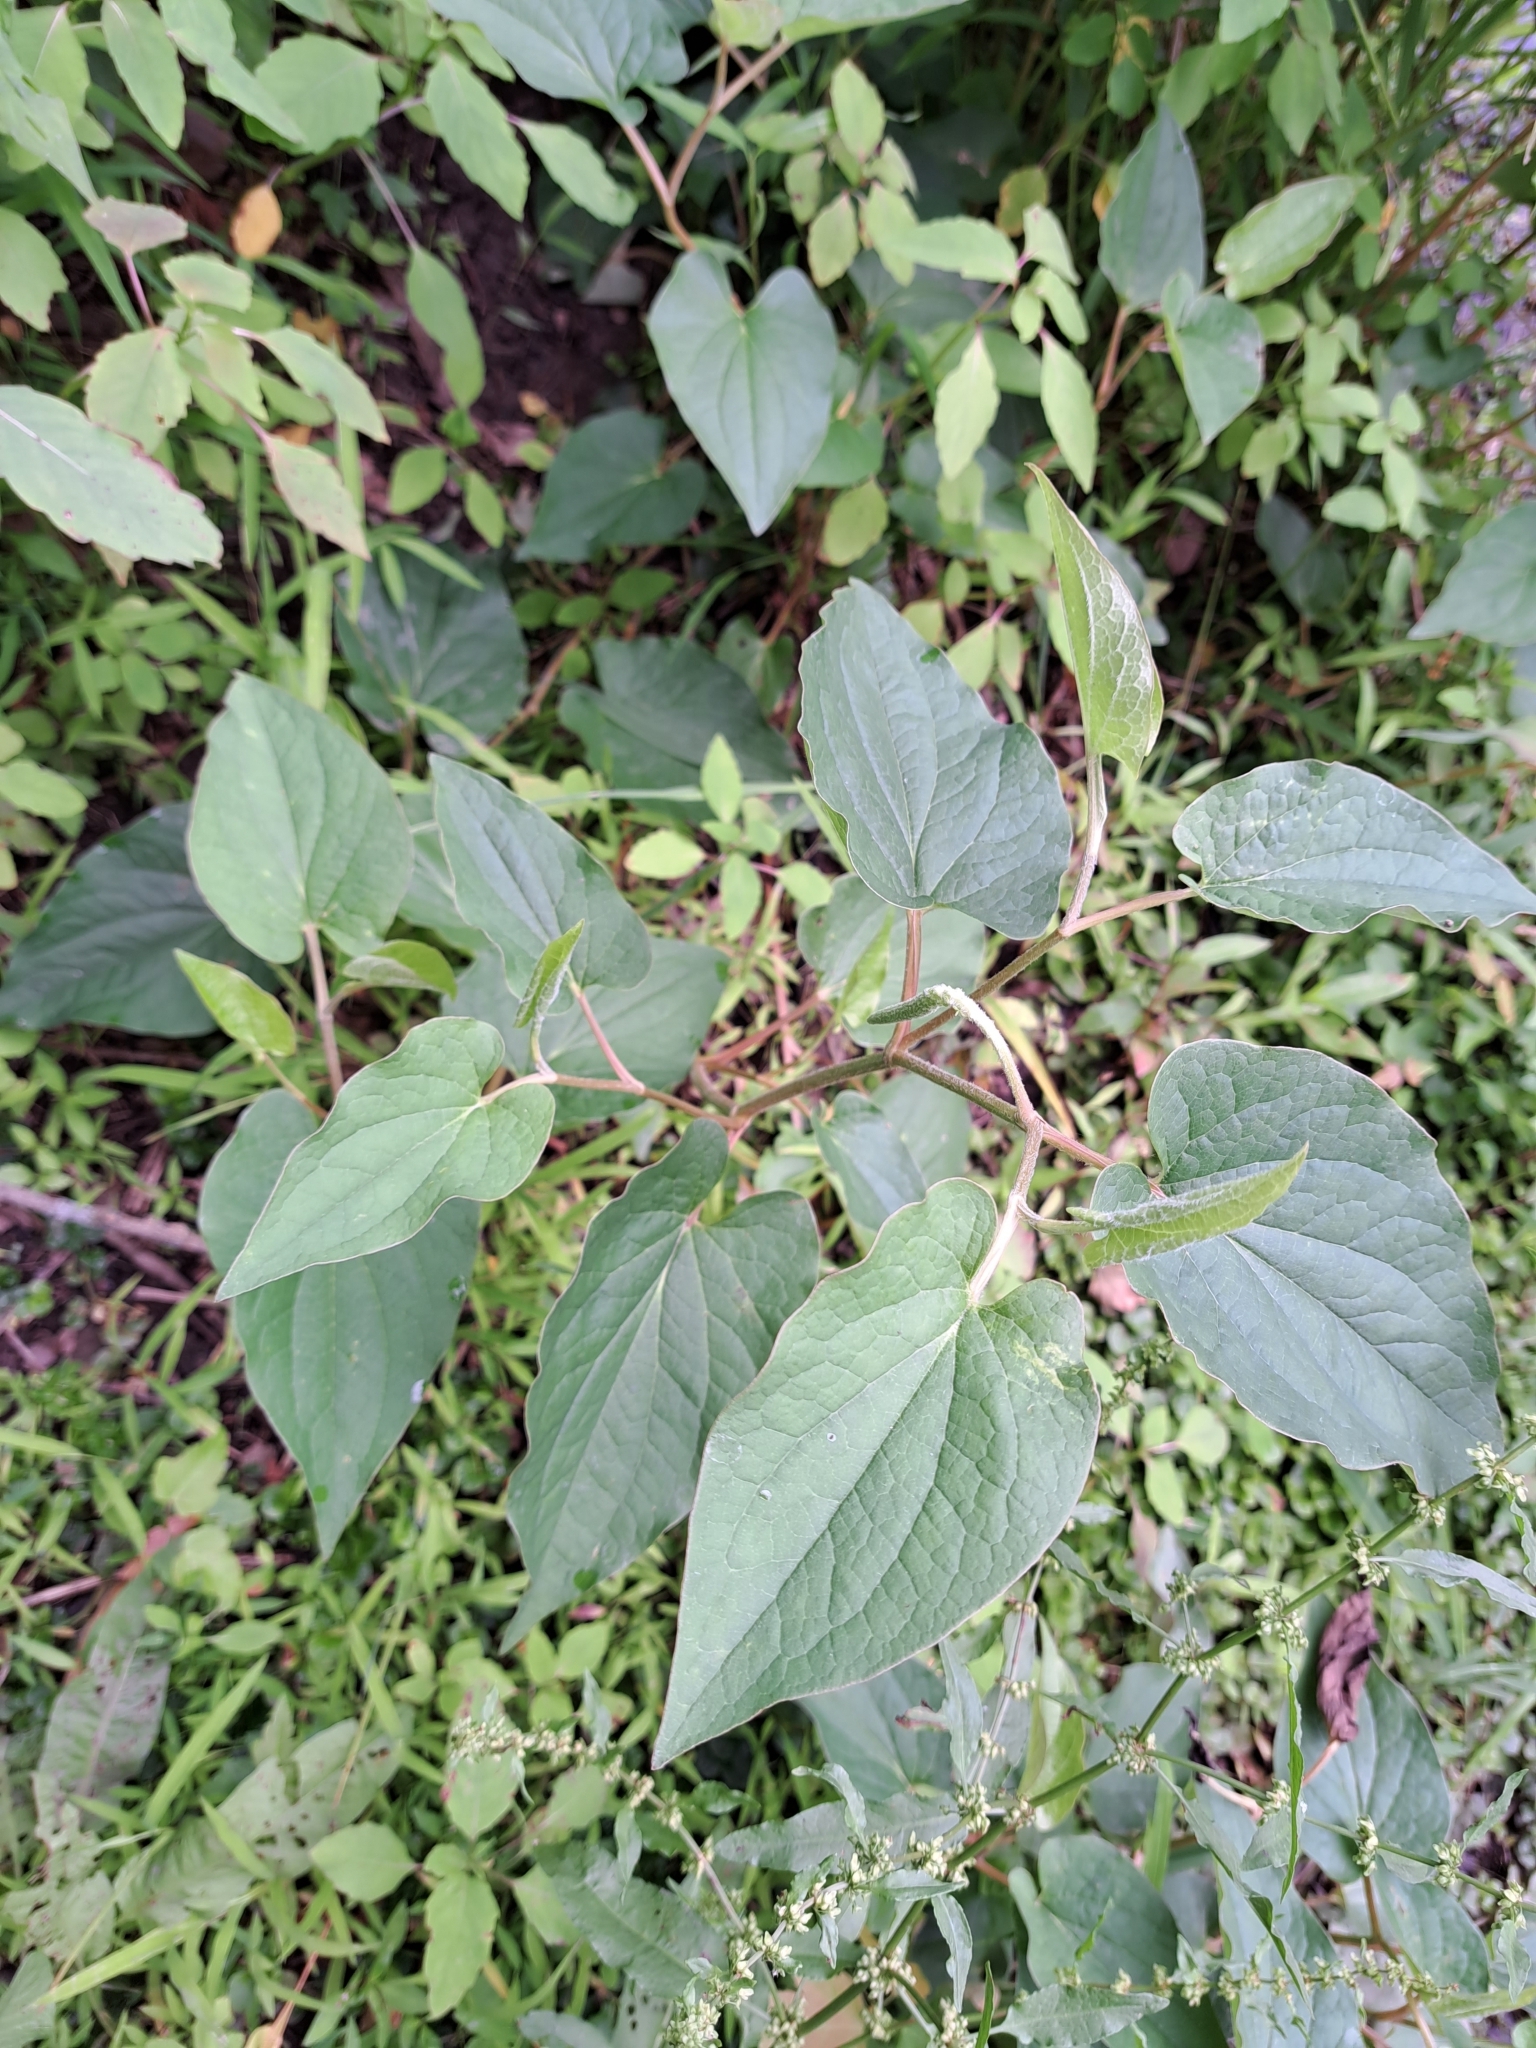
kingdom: Plantae
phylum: Tracheophyta
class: Magnoliopsida
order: Piperales
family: Saururaceae
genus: Saururus
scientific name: Saururus cernuus
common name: Lizard's-tail
